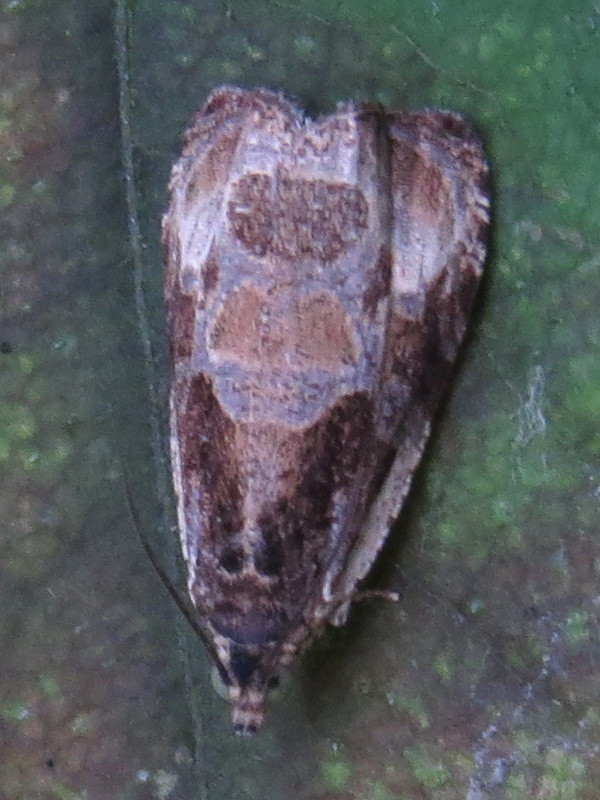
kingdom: Animalia
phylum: Arthropoda
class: Insecta
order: Lepidoptera
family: Tortricidae
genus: Olethreutes
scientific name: Olethreutes connectum
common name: Bunchberry leaffolder moth
